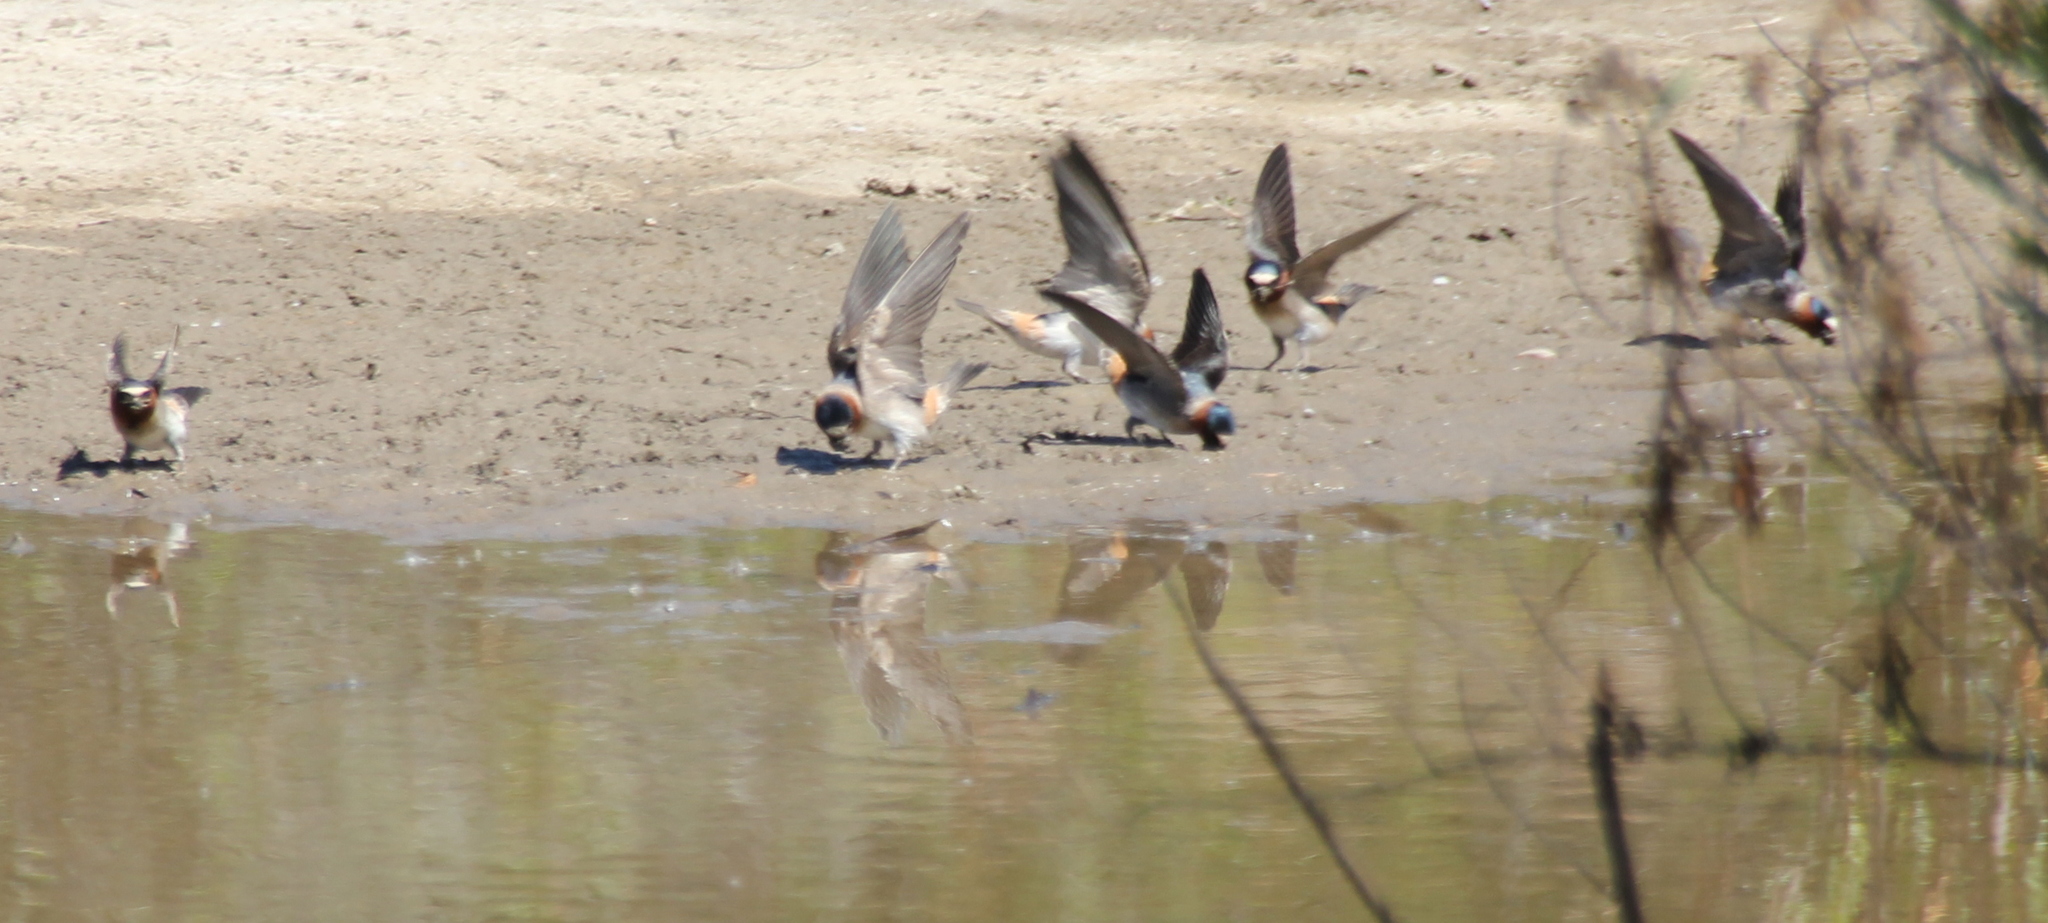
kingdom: Animalia
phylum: Chordata
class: Aves
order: Passeriformes
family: Hirundinidae
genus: Petrochelidon
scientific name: Petrochelidon pyrrhonota
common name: American cliff swallow
